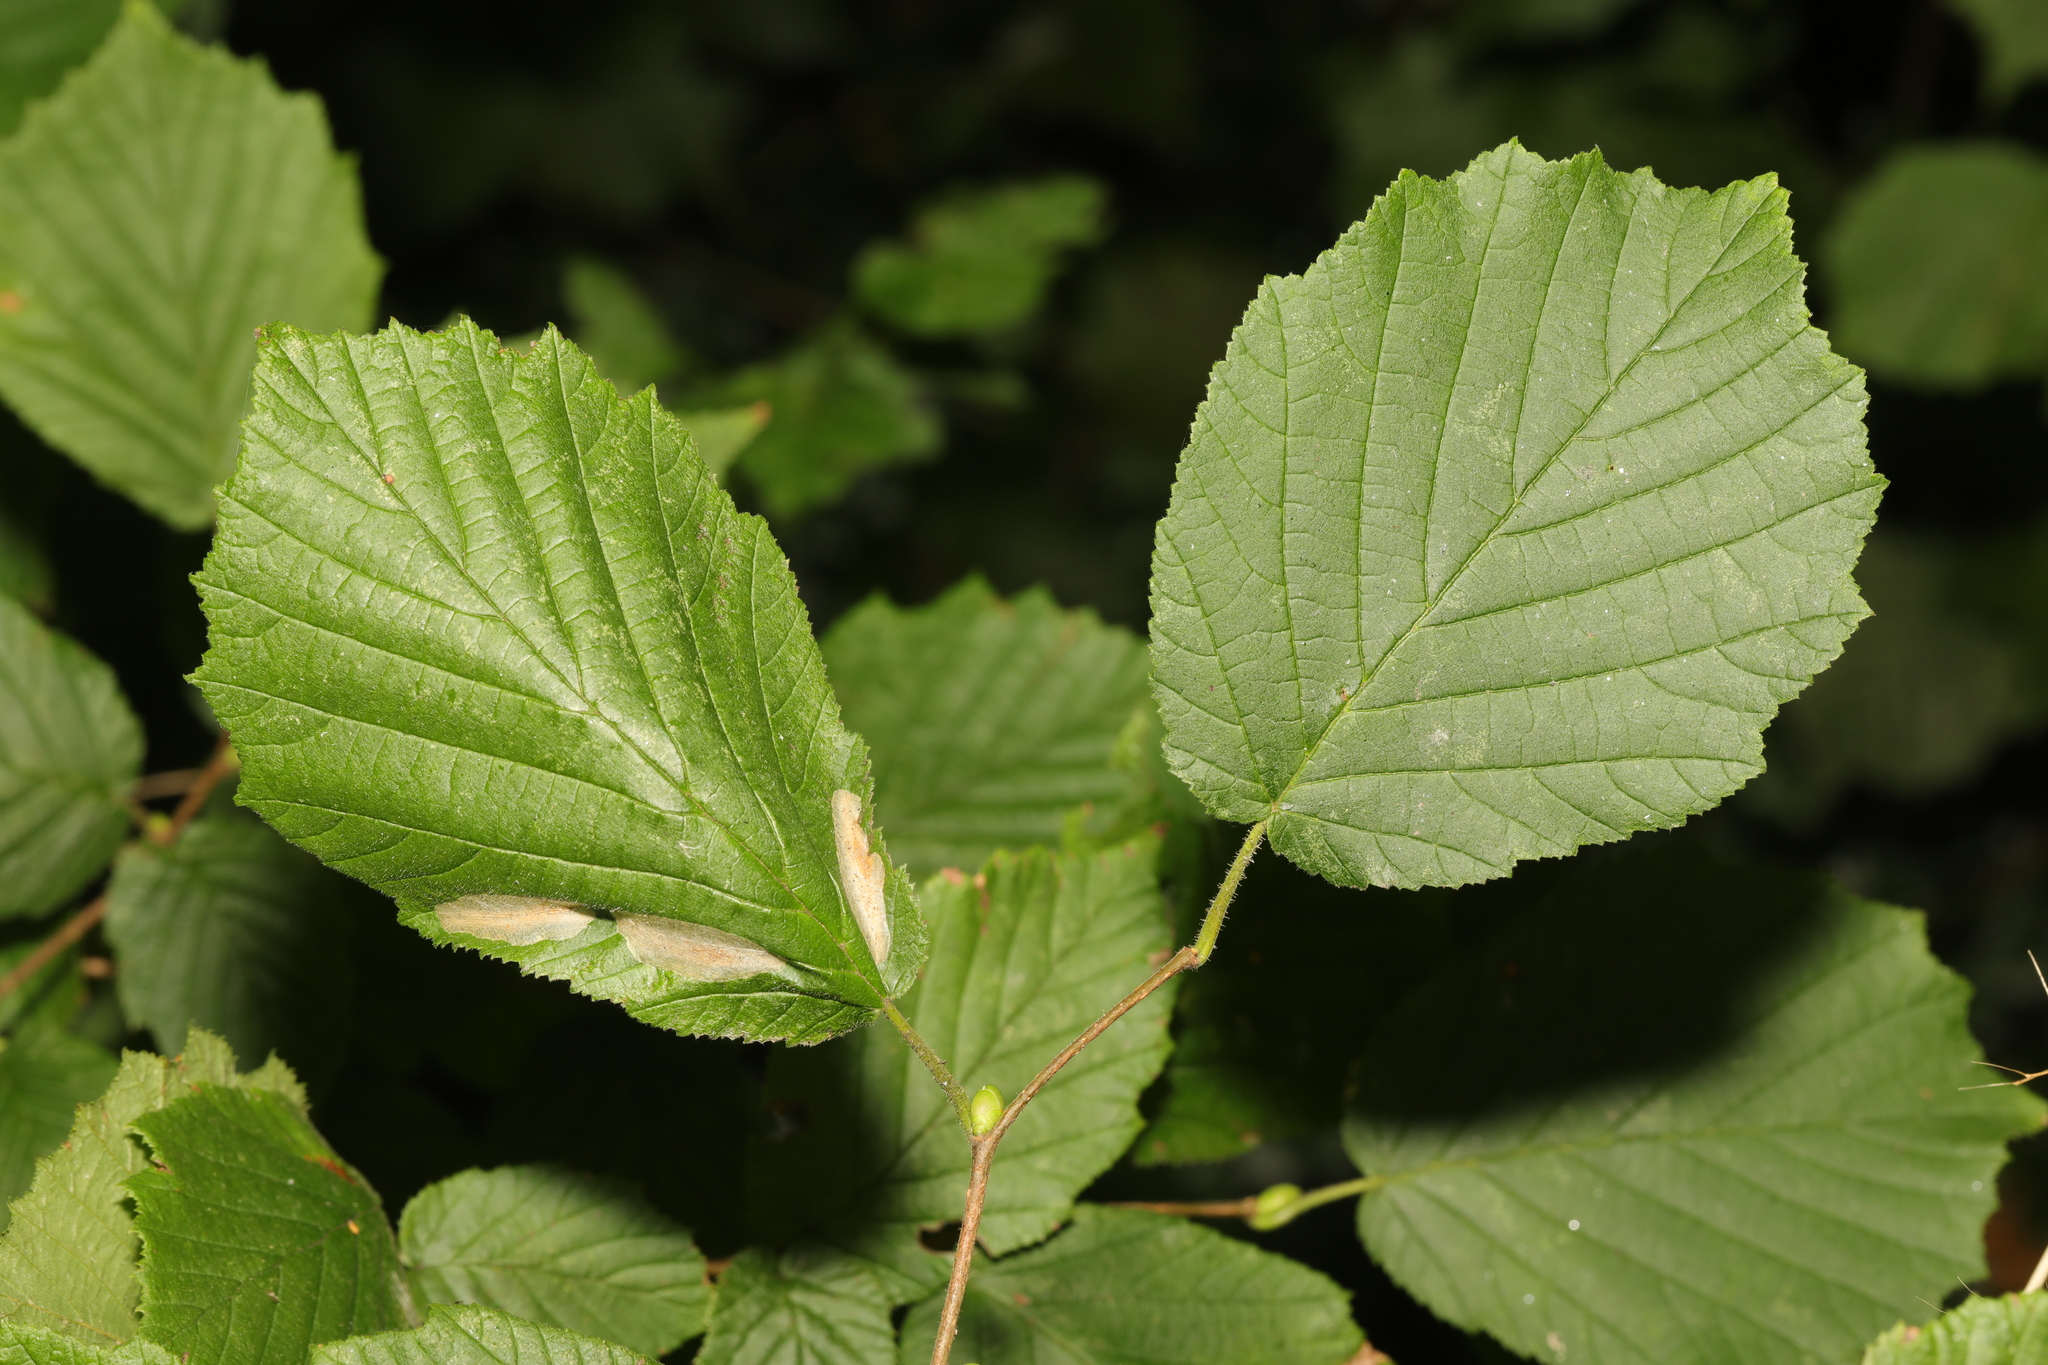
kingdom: Plantae
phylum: Tracheophyta
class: Magnoliopsida
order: Fagales
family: Betulaceae
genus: Corylus
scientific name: Corylus avellana
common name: European hazel
